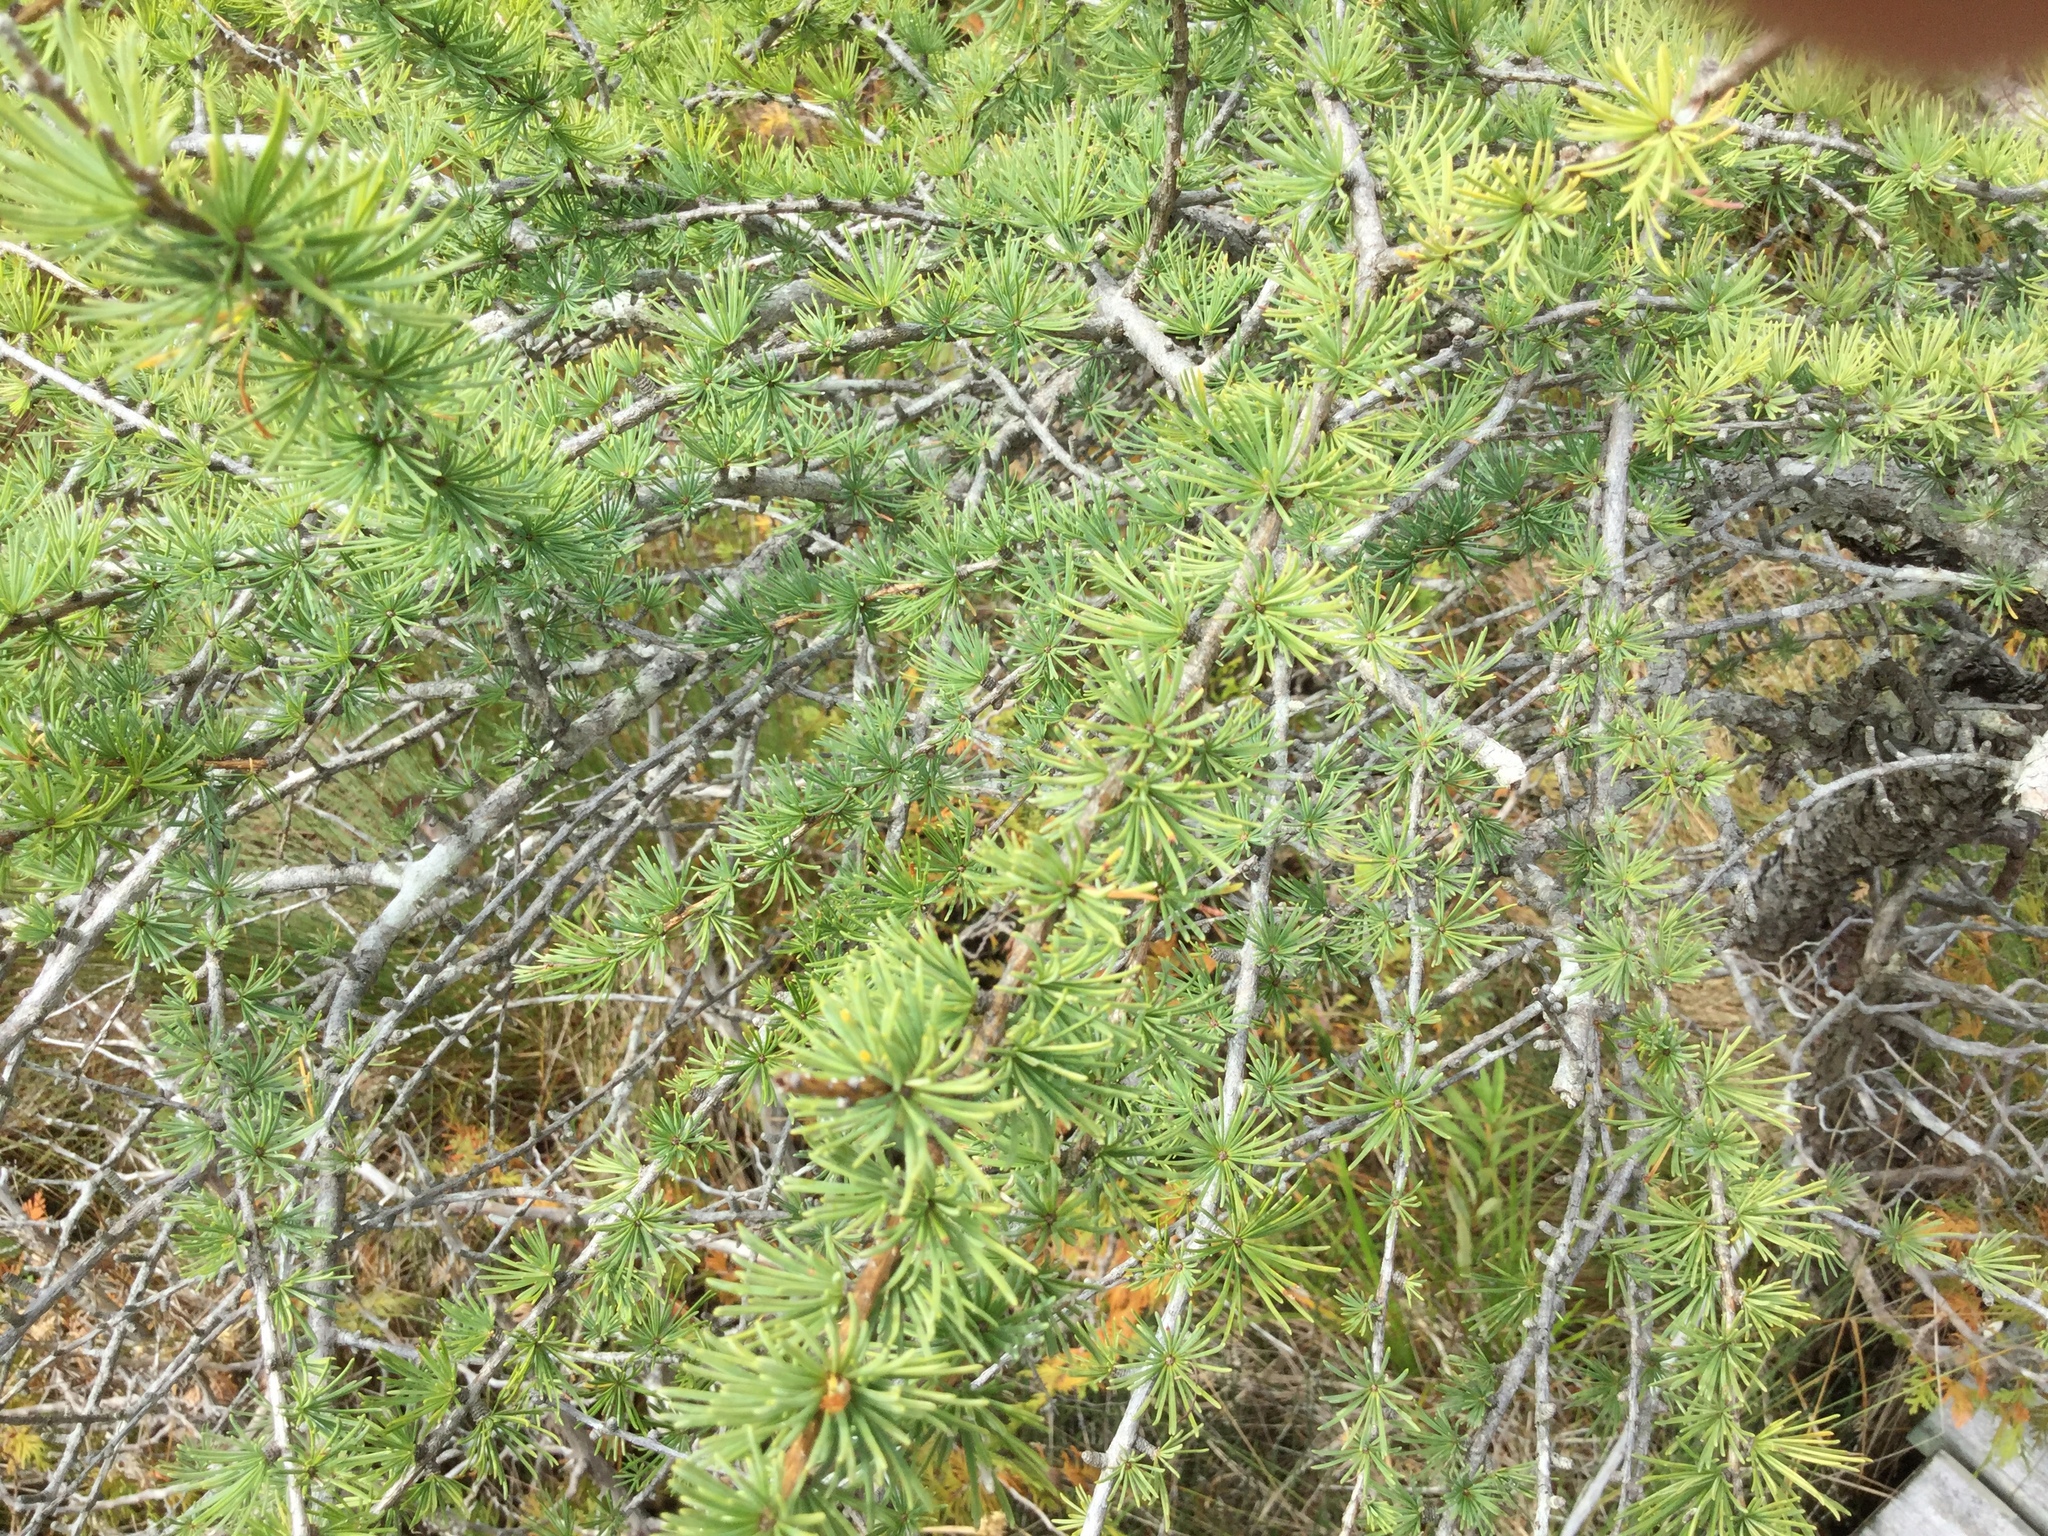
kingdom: Plantae
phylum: Tracheophyta
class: Pinopsida
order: Pinales
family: Pinaceae
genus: Larix
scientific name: Larix laricina
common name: American larch
